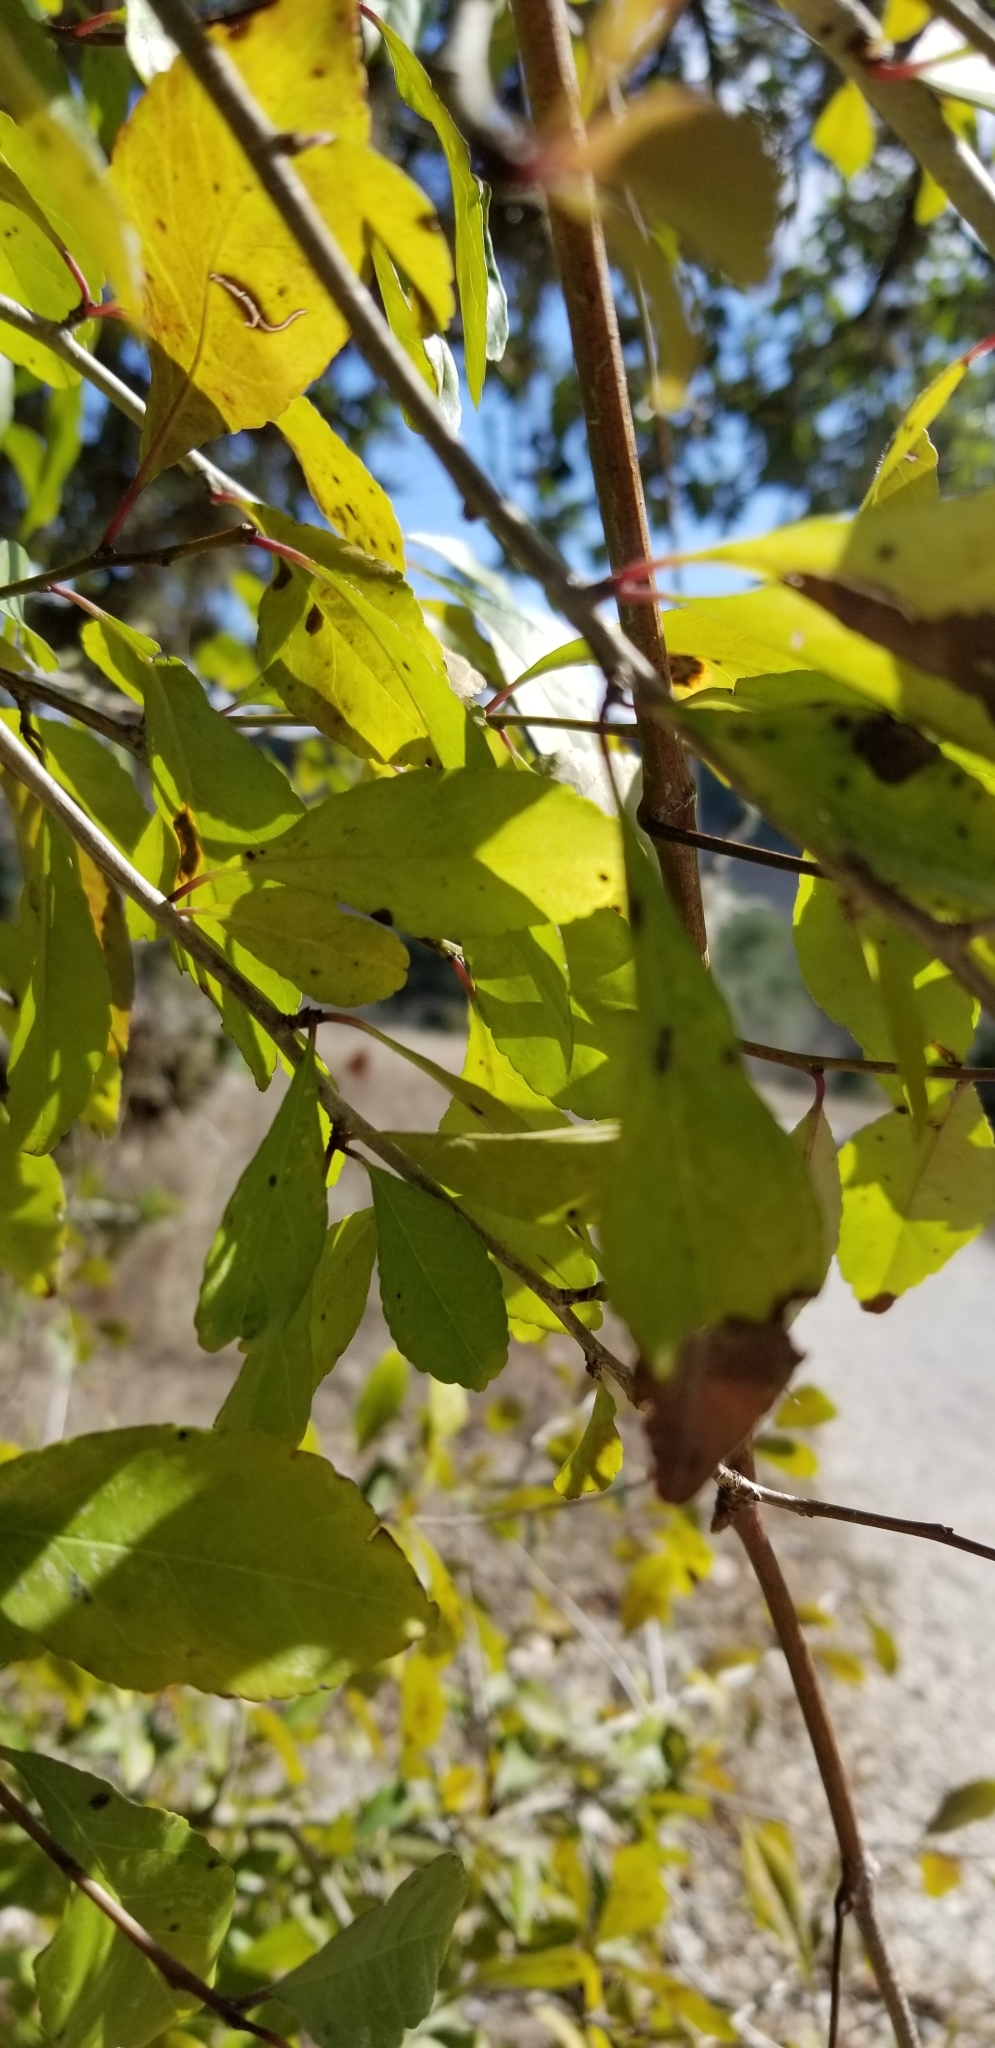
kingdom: Plantae
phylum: Tracheophyta
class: Magnoliopsida
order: Aquifoliales
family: Aquifoliaceae
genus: Ilex
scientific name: Ilex decidua
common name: Possum-haw
